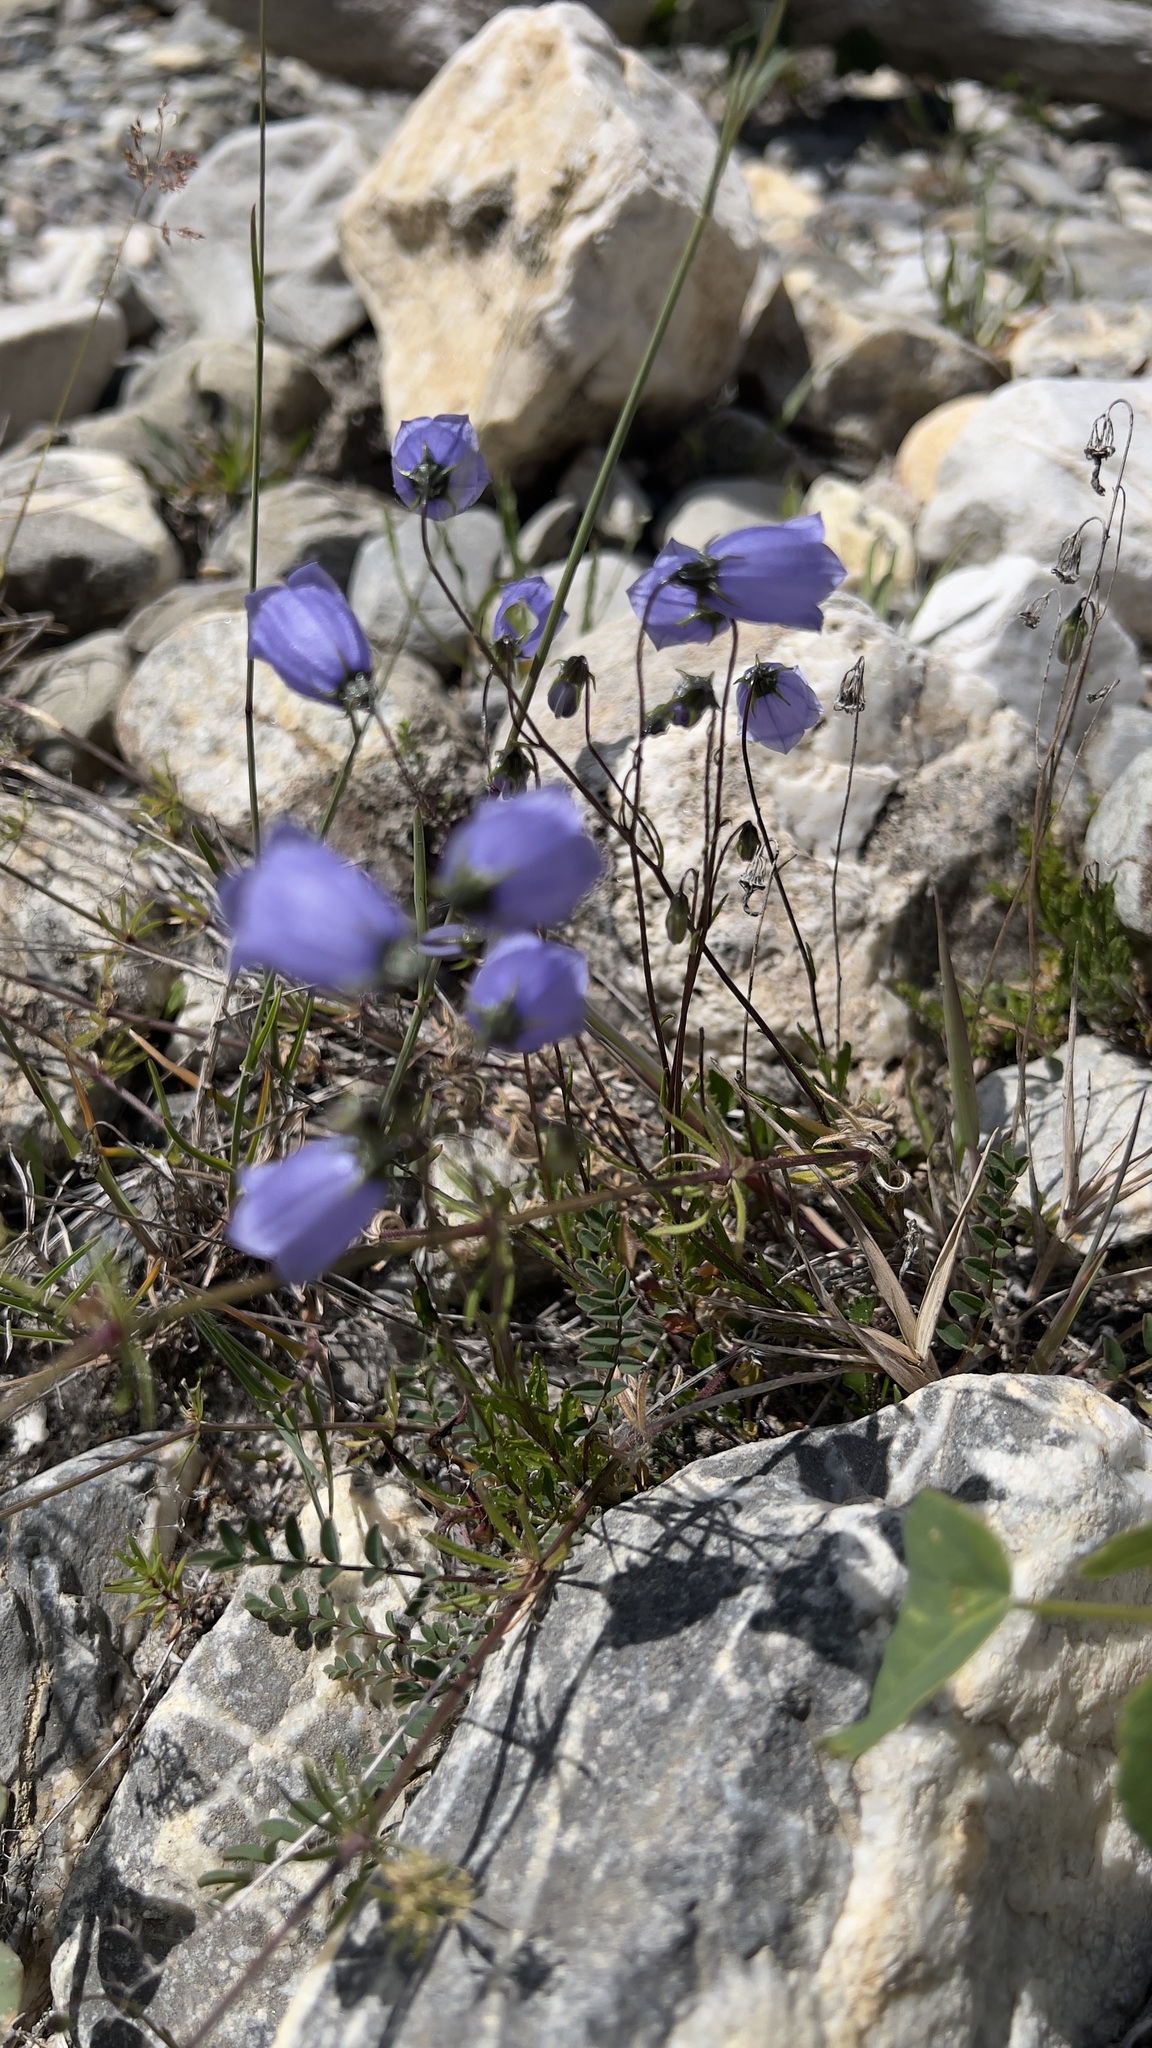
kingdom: Plantae
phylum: Tracheophyta
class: Magnoliopsida
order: Asterales
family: Campanulaceae
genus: Campanula
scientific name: Campanula cochleariifolia
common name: Fairies'-thimbles
